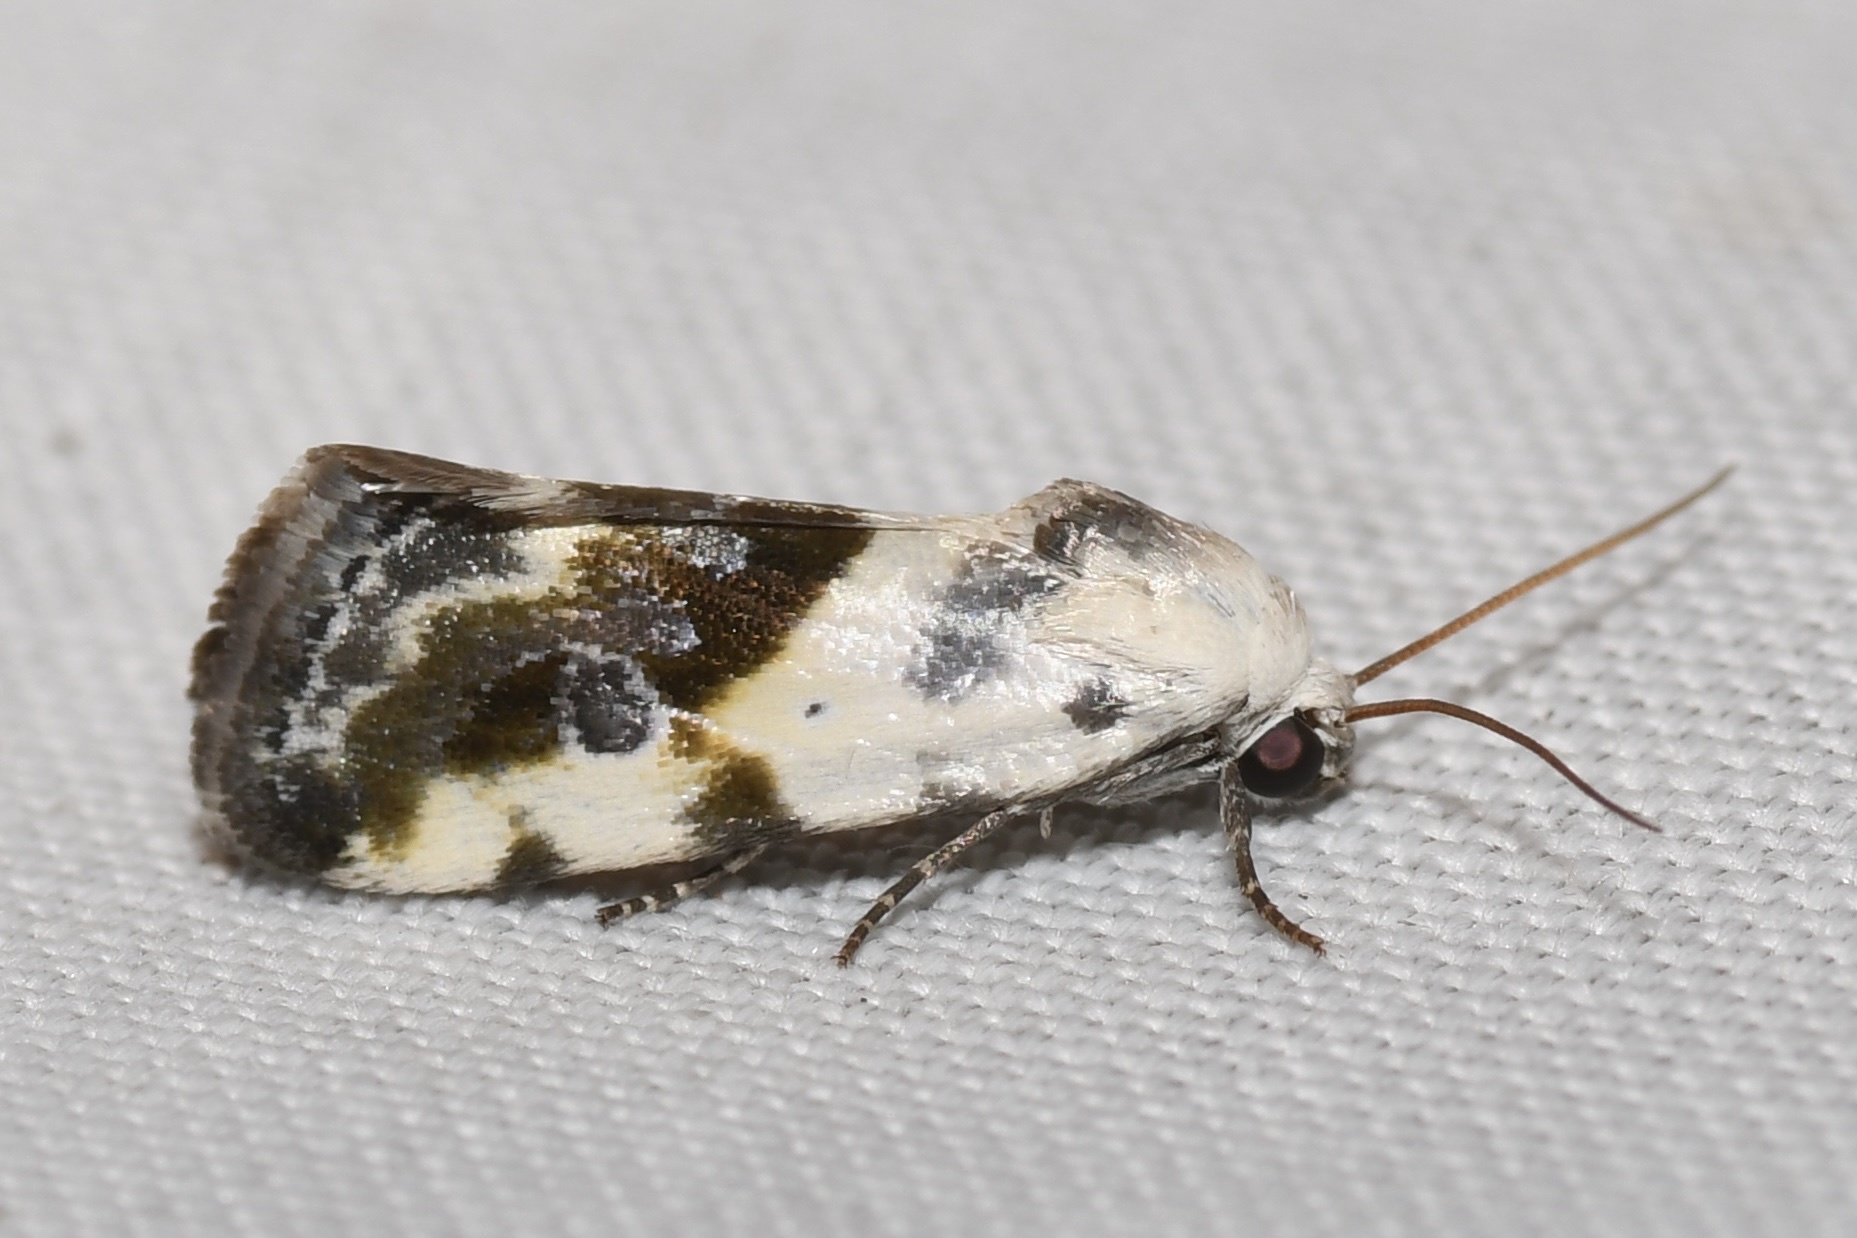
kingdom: Animalia
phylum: Arthropoda
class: Insecta
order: Lepidoptera
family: Noctuidae
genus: Acontia
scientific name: Acontia candefacta
